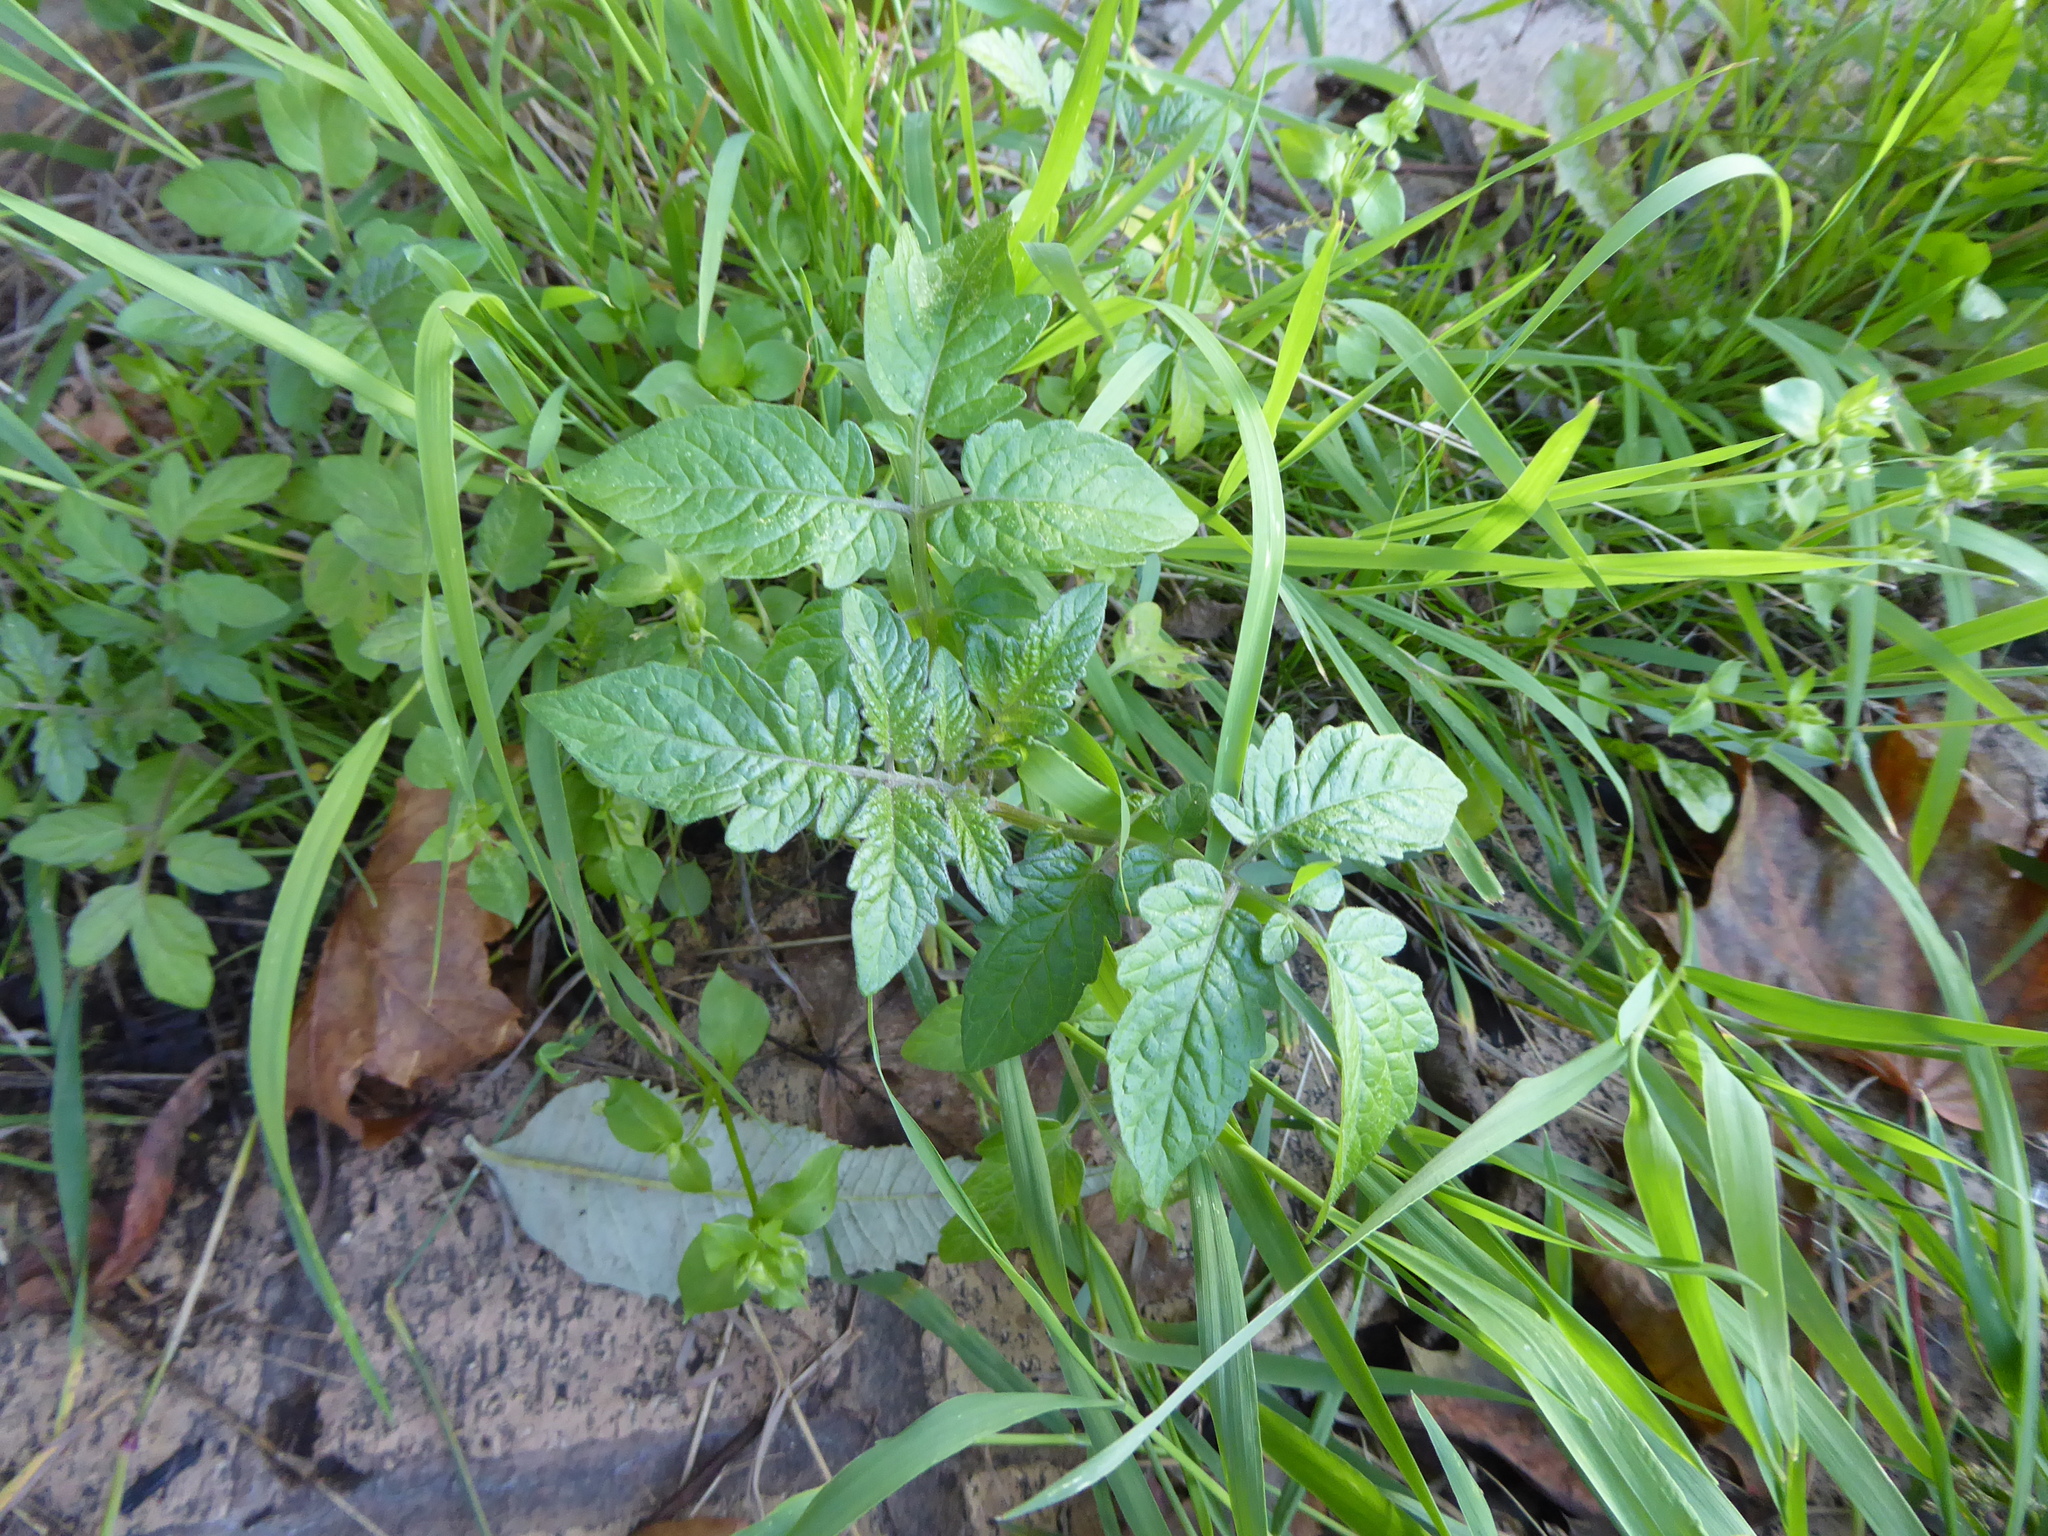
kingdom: Plantae
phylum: Tracheophyta
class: Magnoliopsida
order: Solanales
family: Solanaceae
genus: Solanum
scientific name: Solanum lycopersicum
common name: Garden tomato
